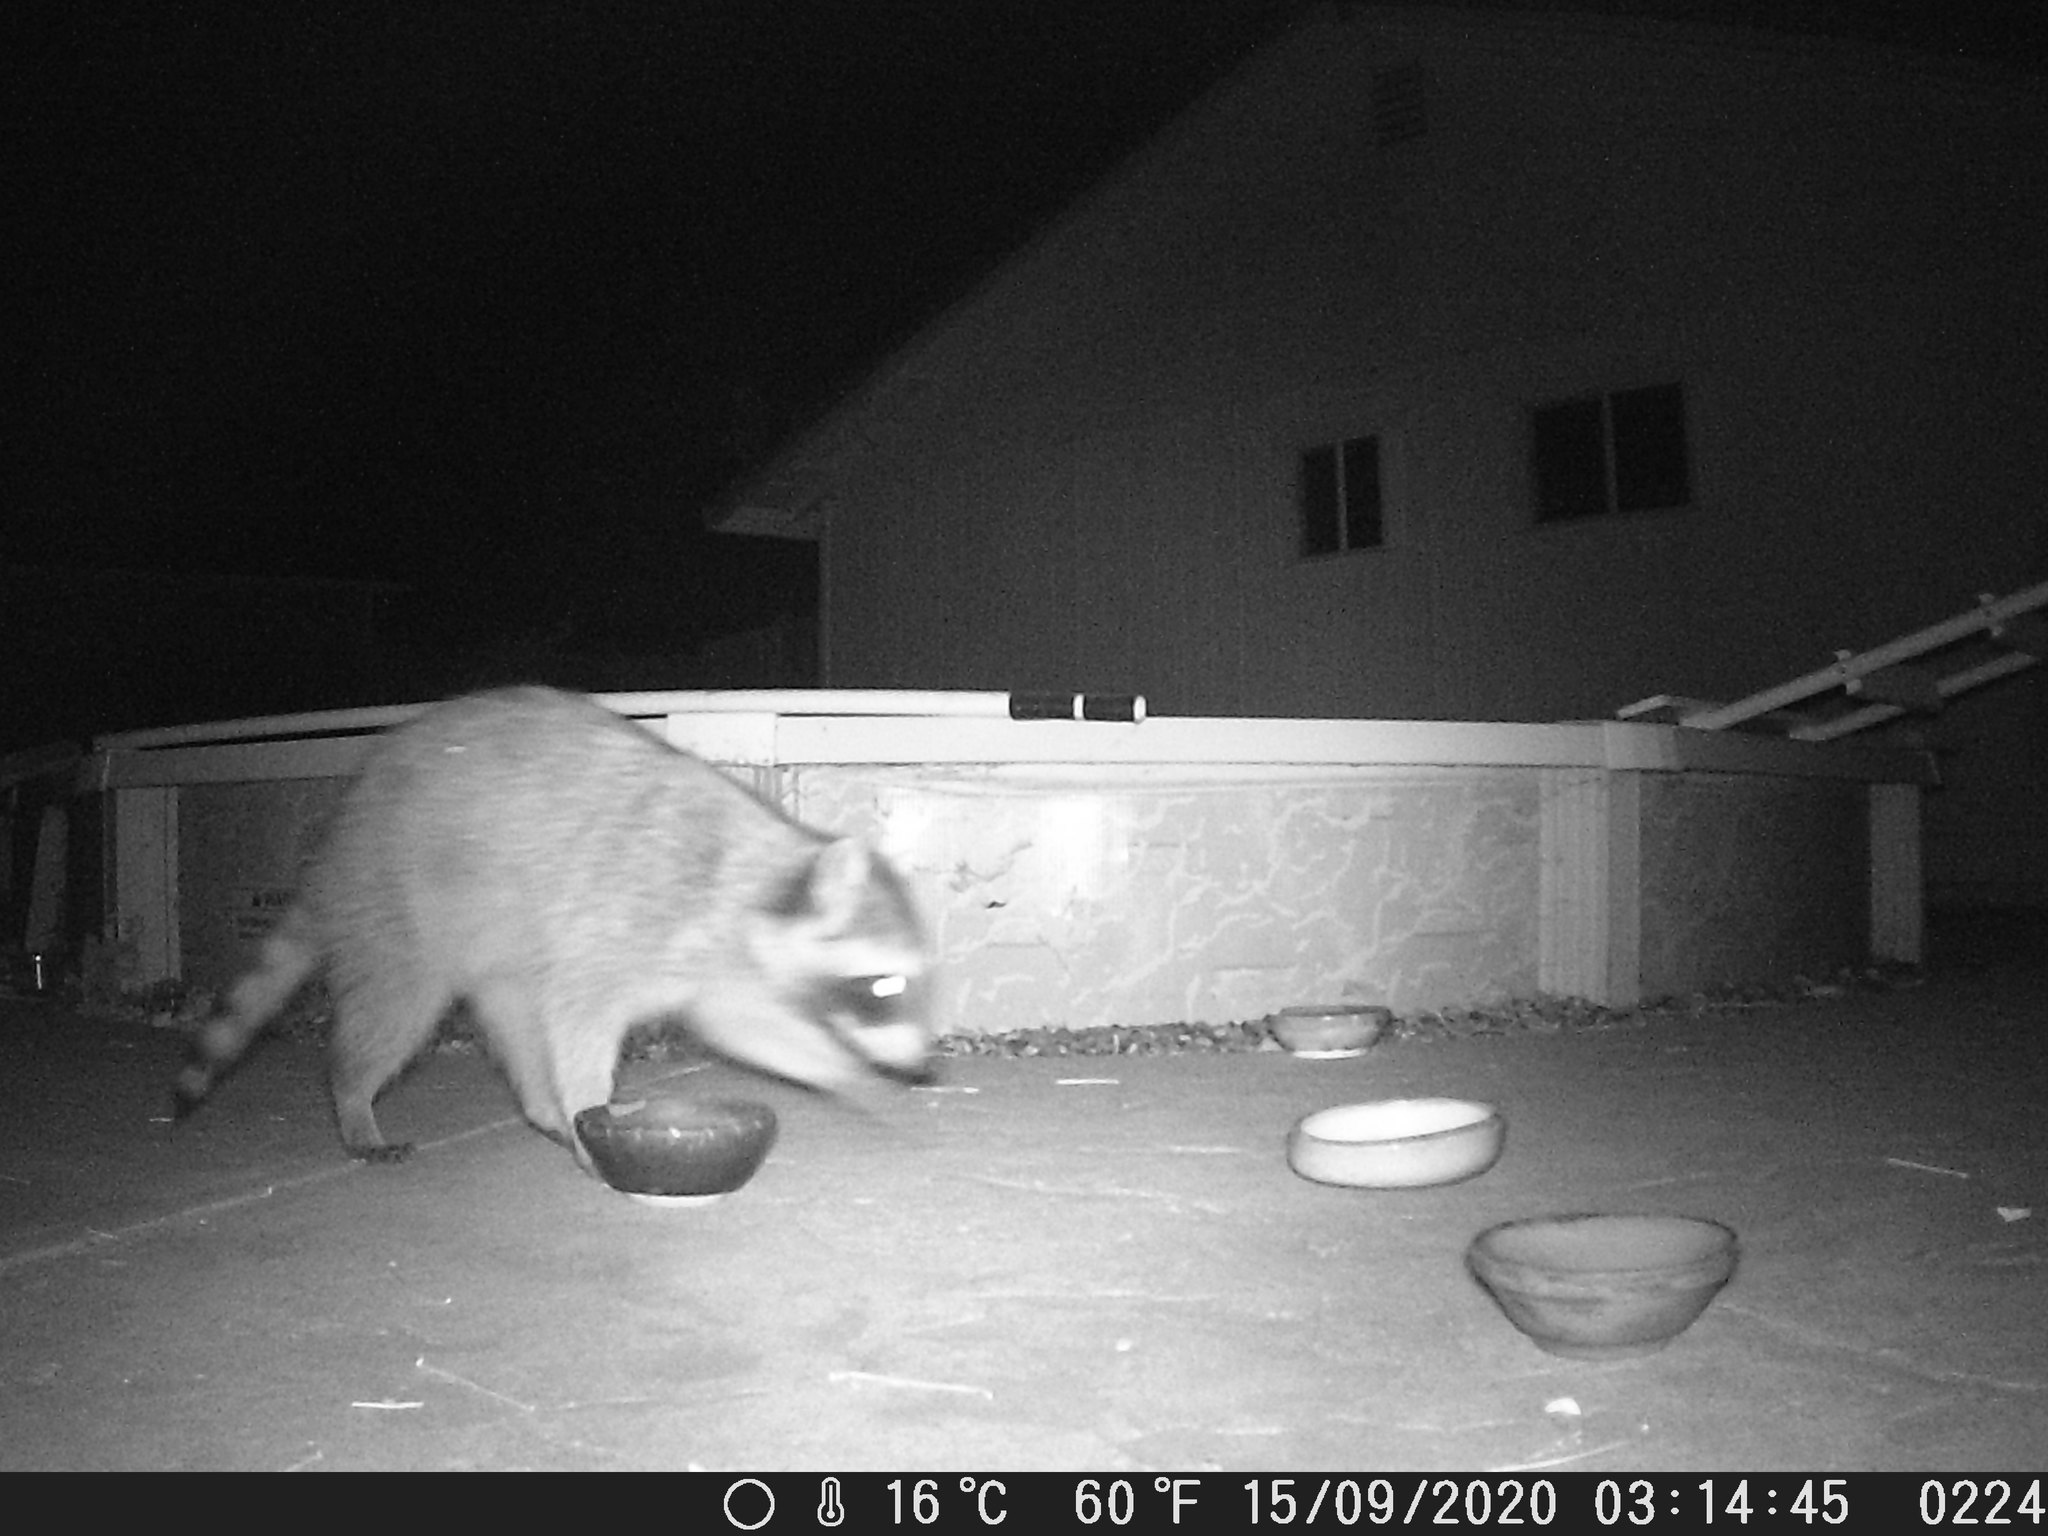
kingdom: Animalia
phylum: Chordata
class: Mammalia
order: Carnivora
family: Procyonidae
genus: Procyon
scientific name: Procyon lotor
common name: Raccoon
